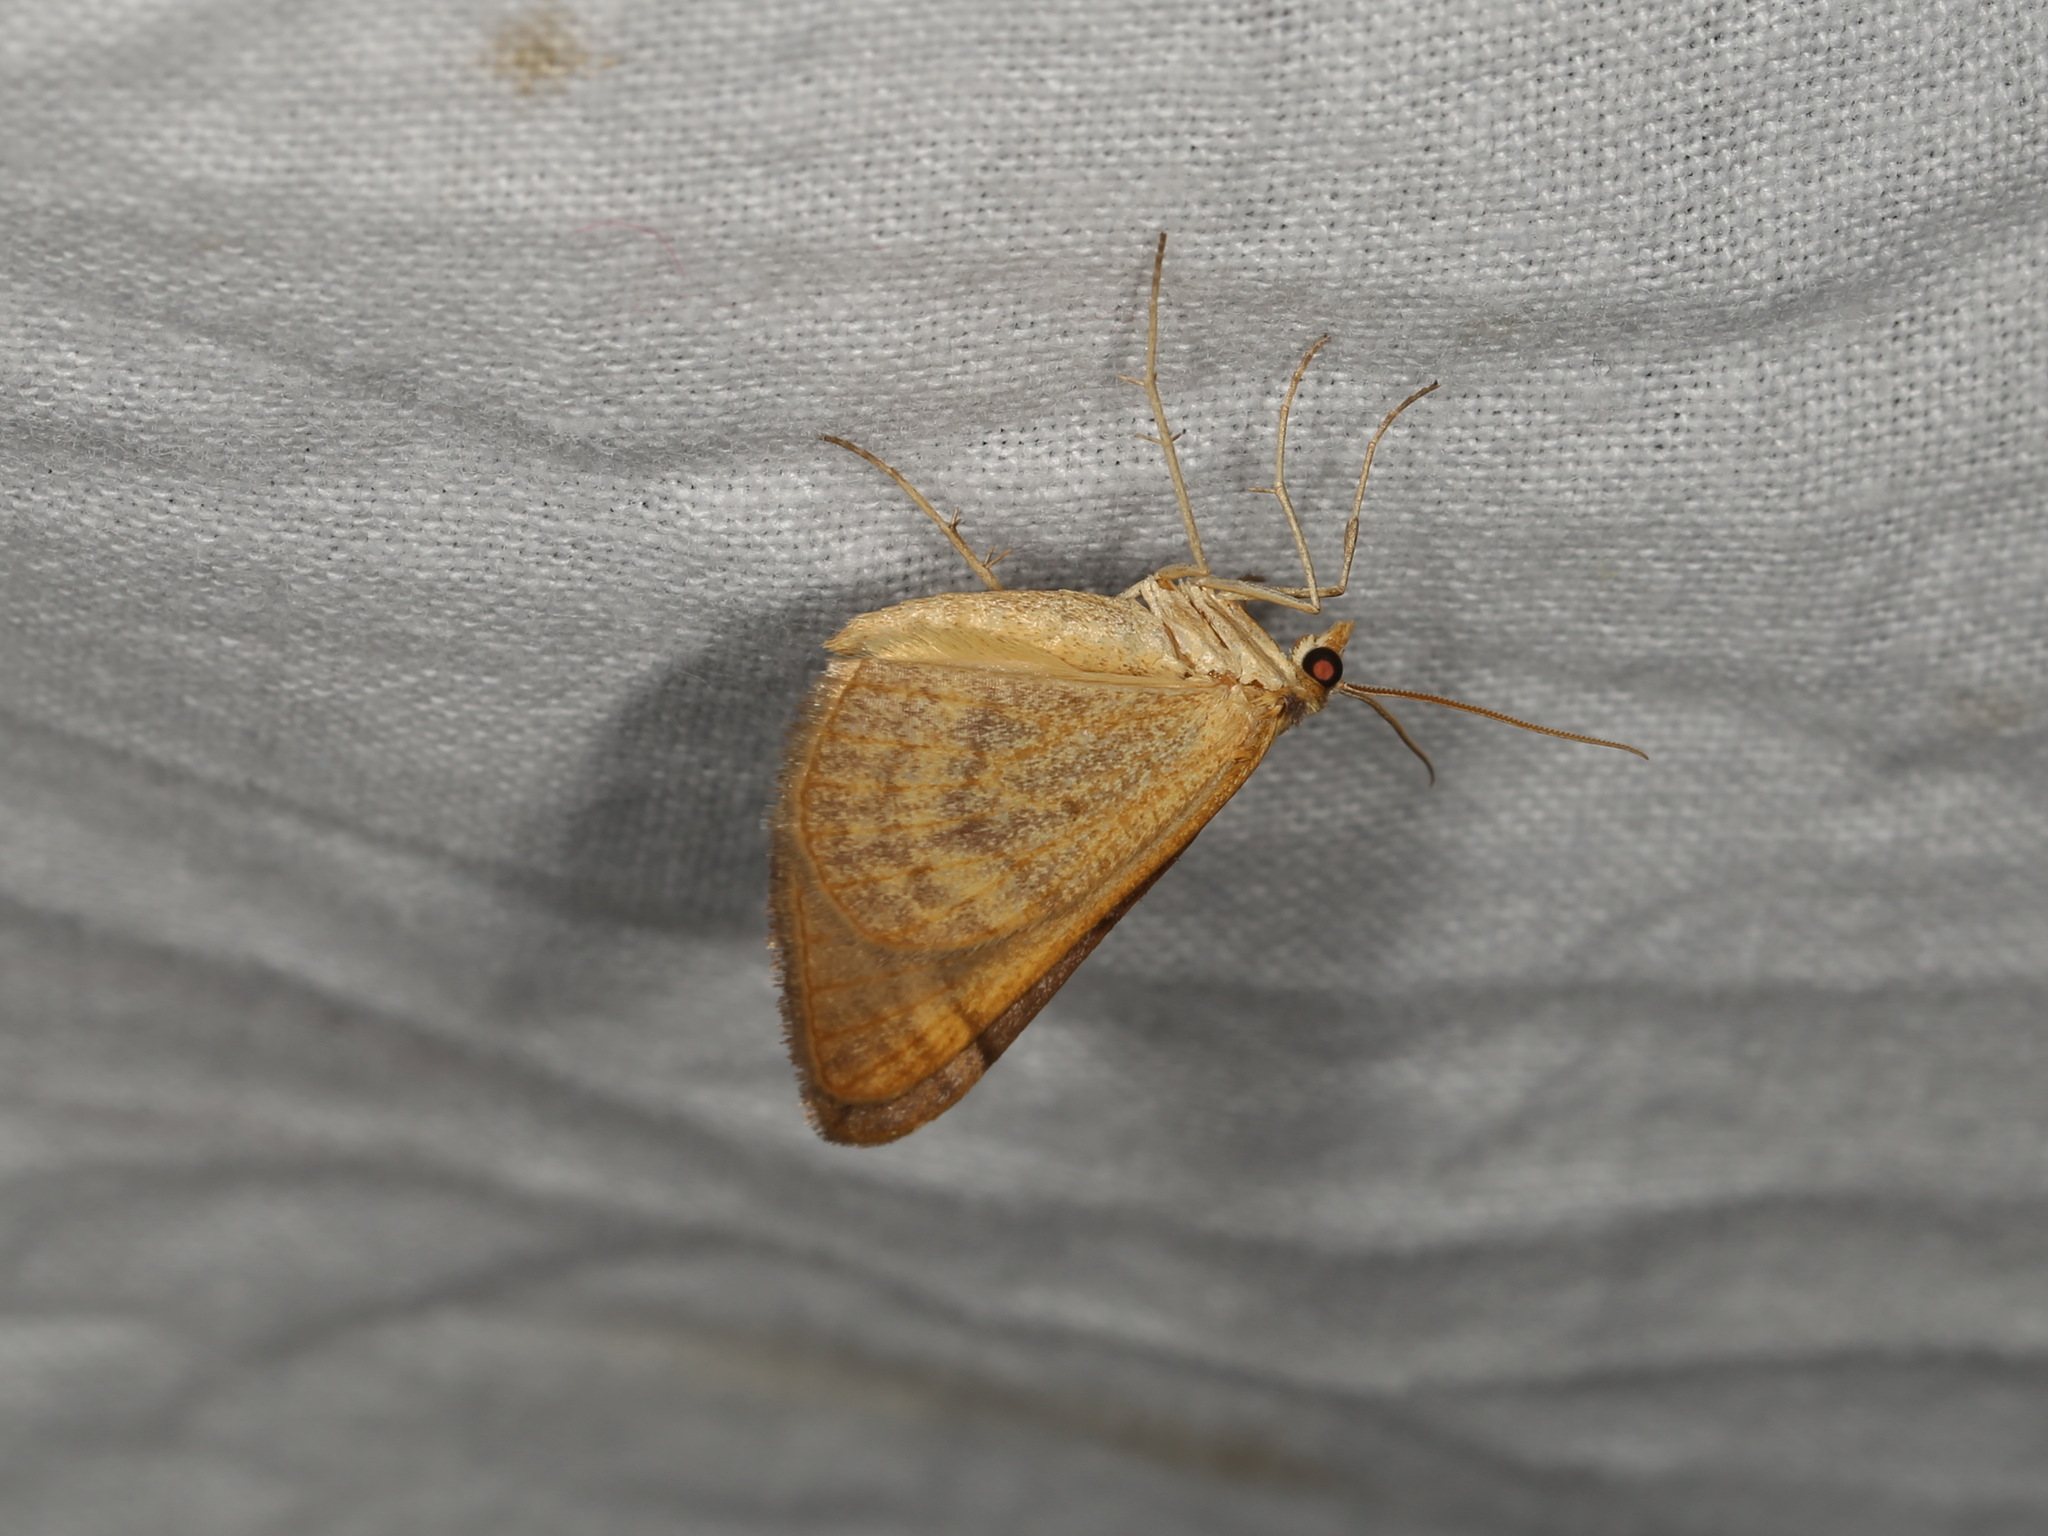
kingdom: Animalia
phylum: Arthropoda
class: Insecta
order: Lepidoptera
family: Geometridae
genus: Anachloris
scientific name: Anachloris subochraria
